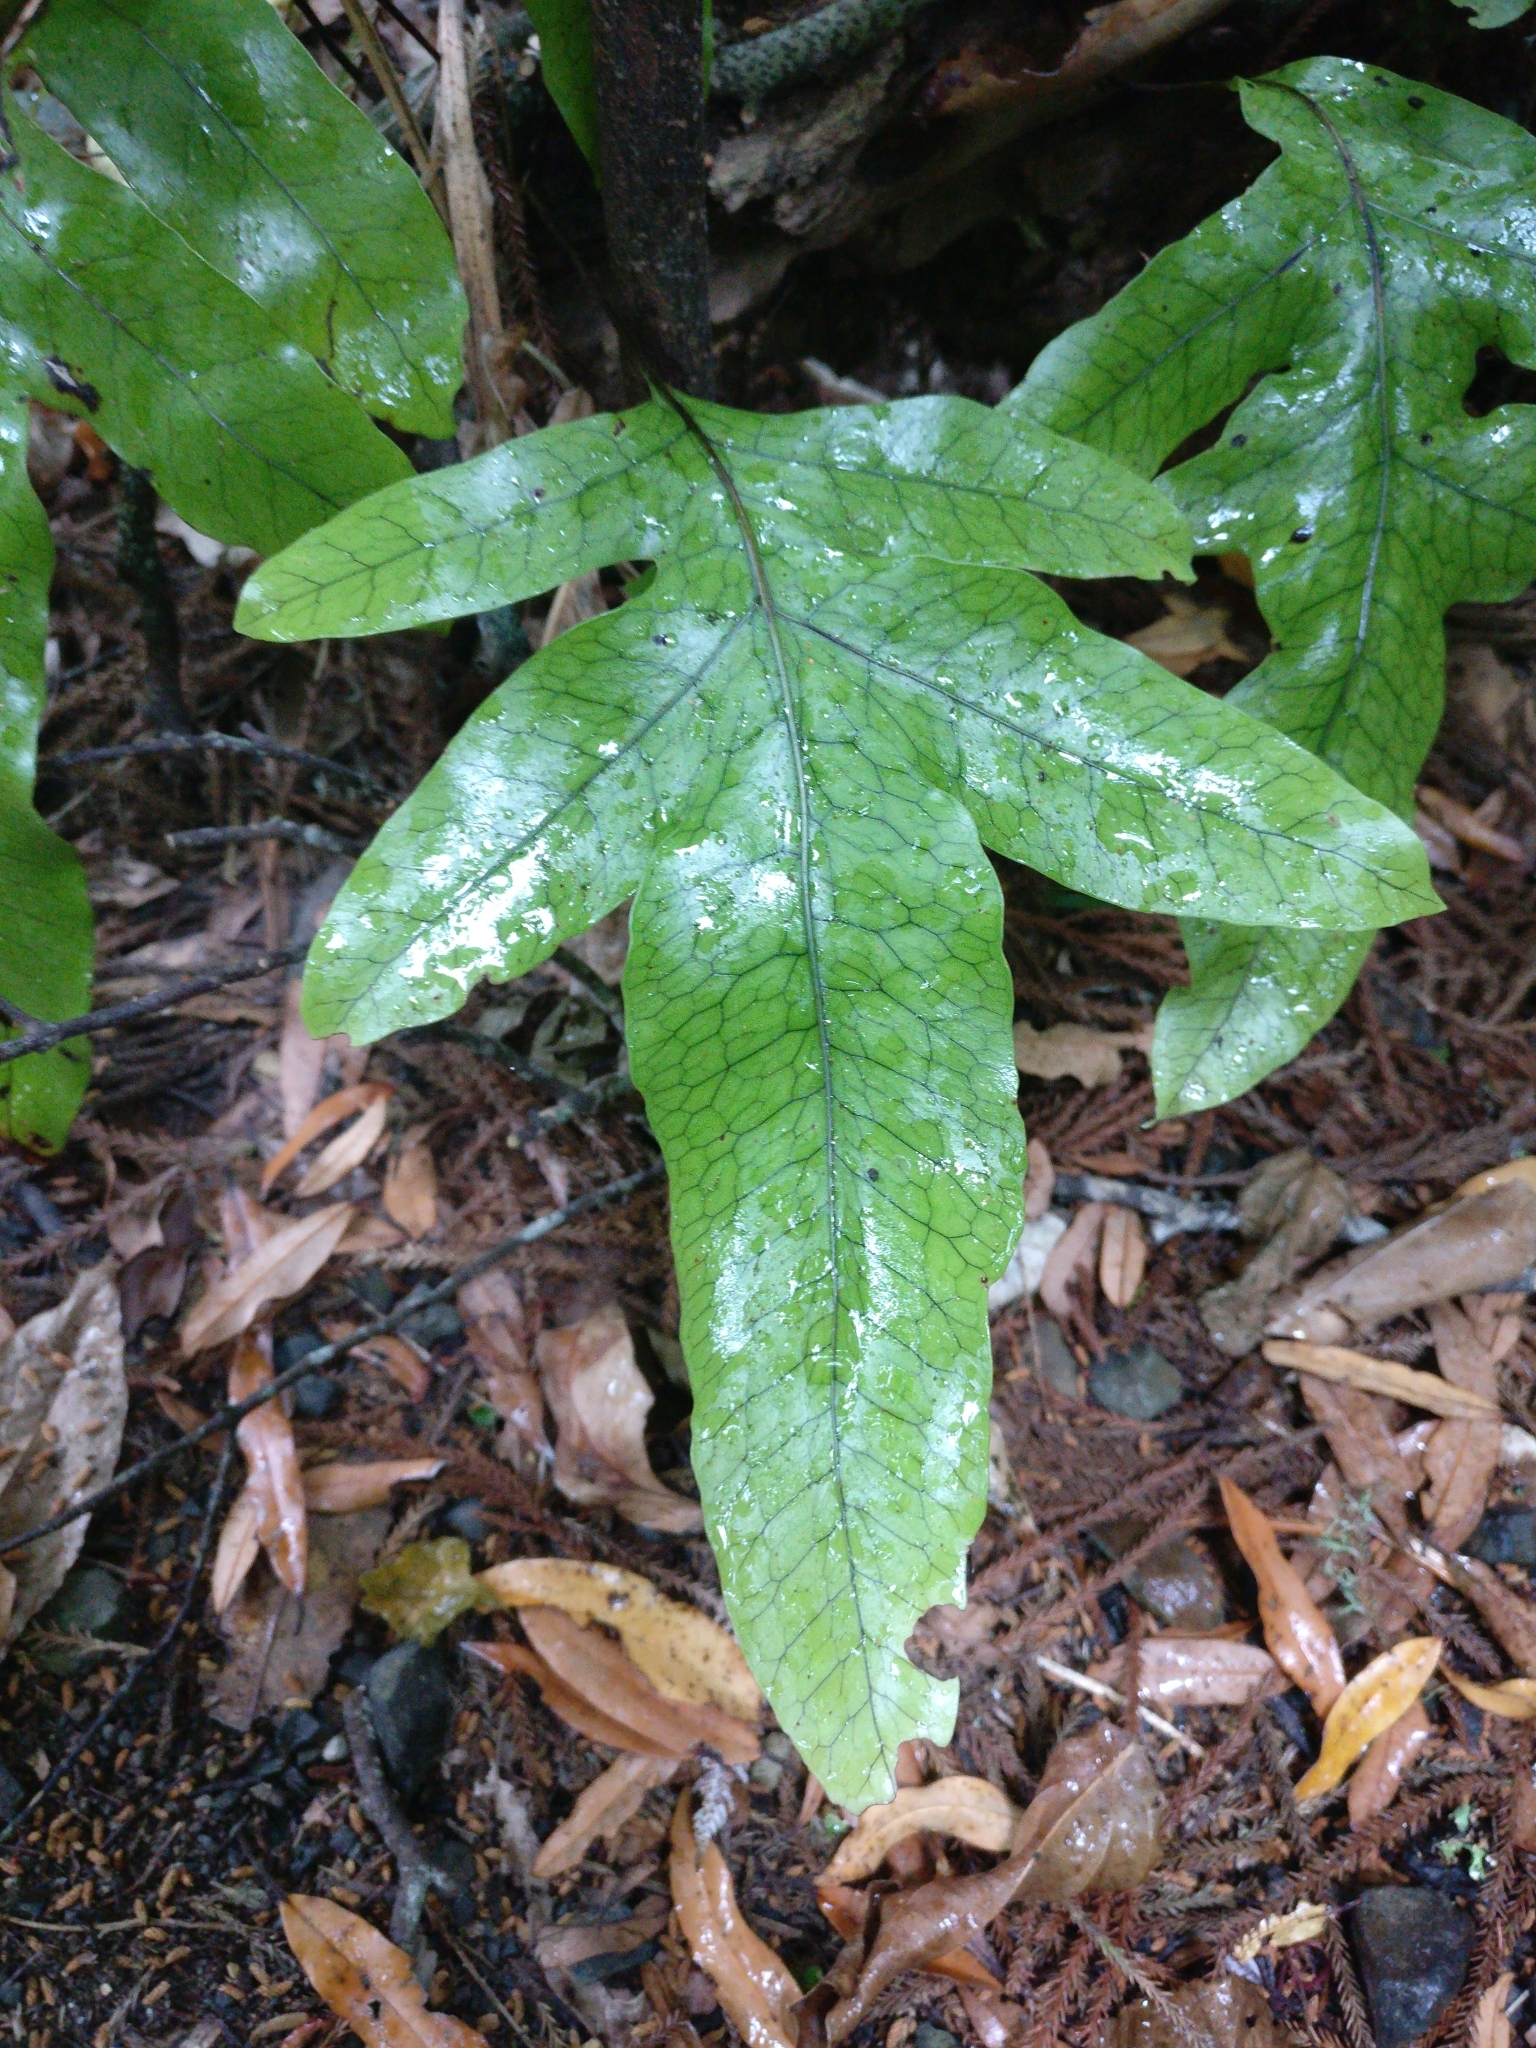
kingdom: Plantae
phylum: Tracheophyta
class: Polypodiopsida
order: Polypodiales
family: Polypodiaceae
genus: Lecanopteris
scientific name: Lecanopteris pustulata
